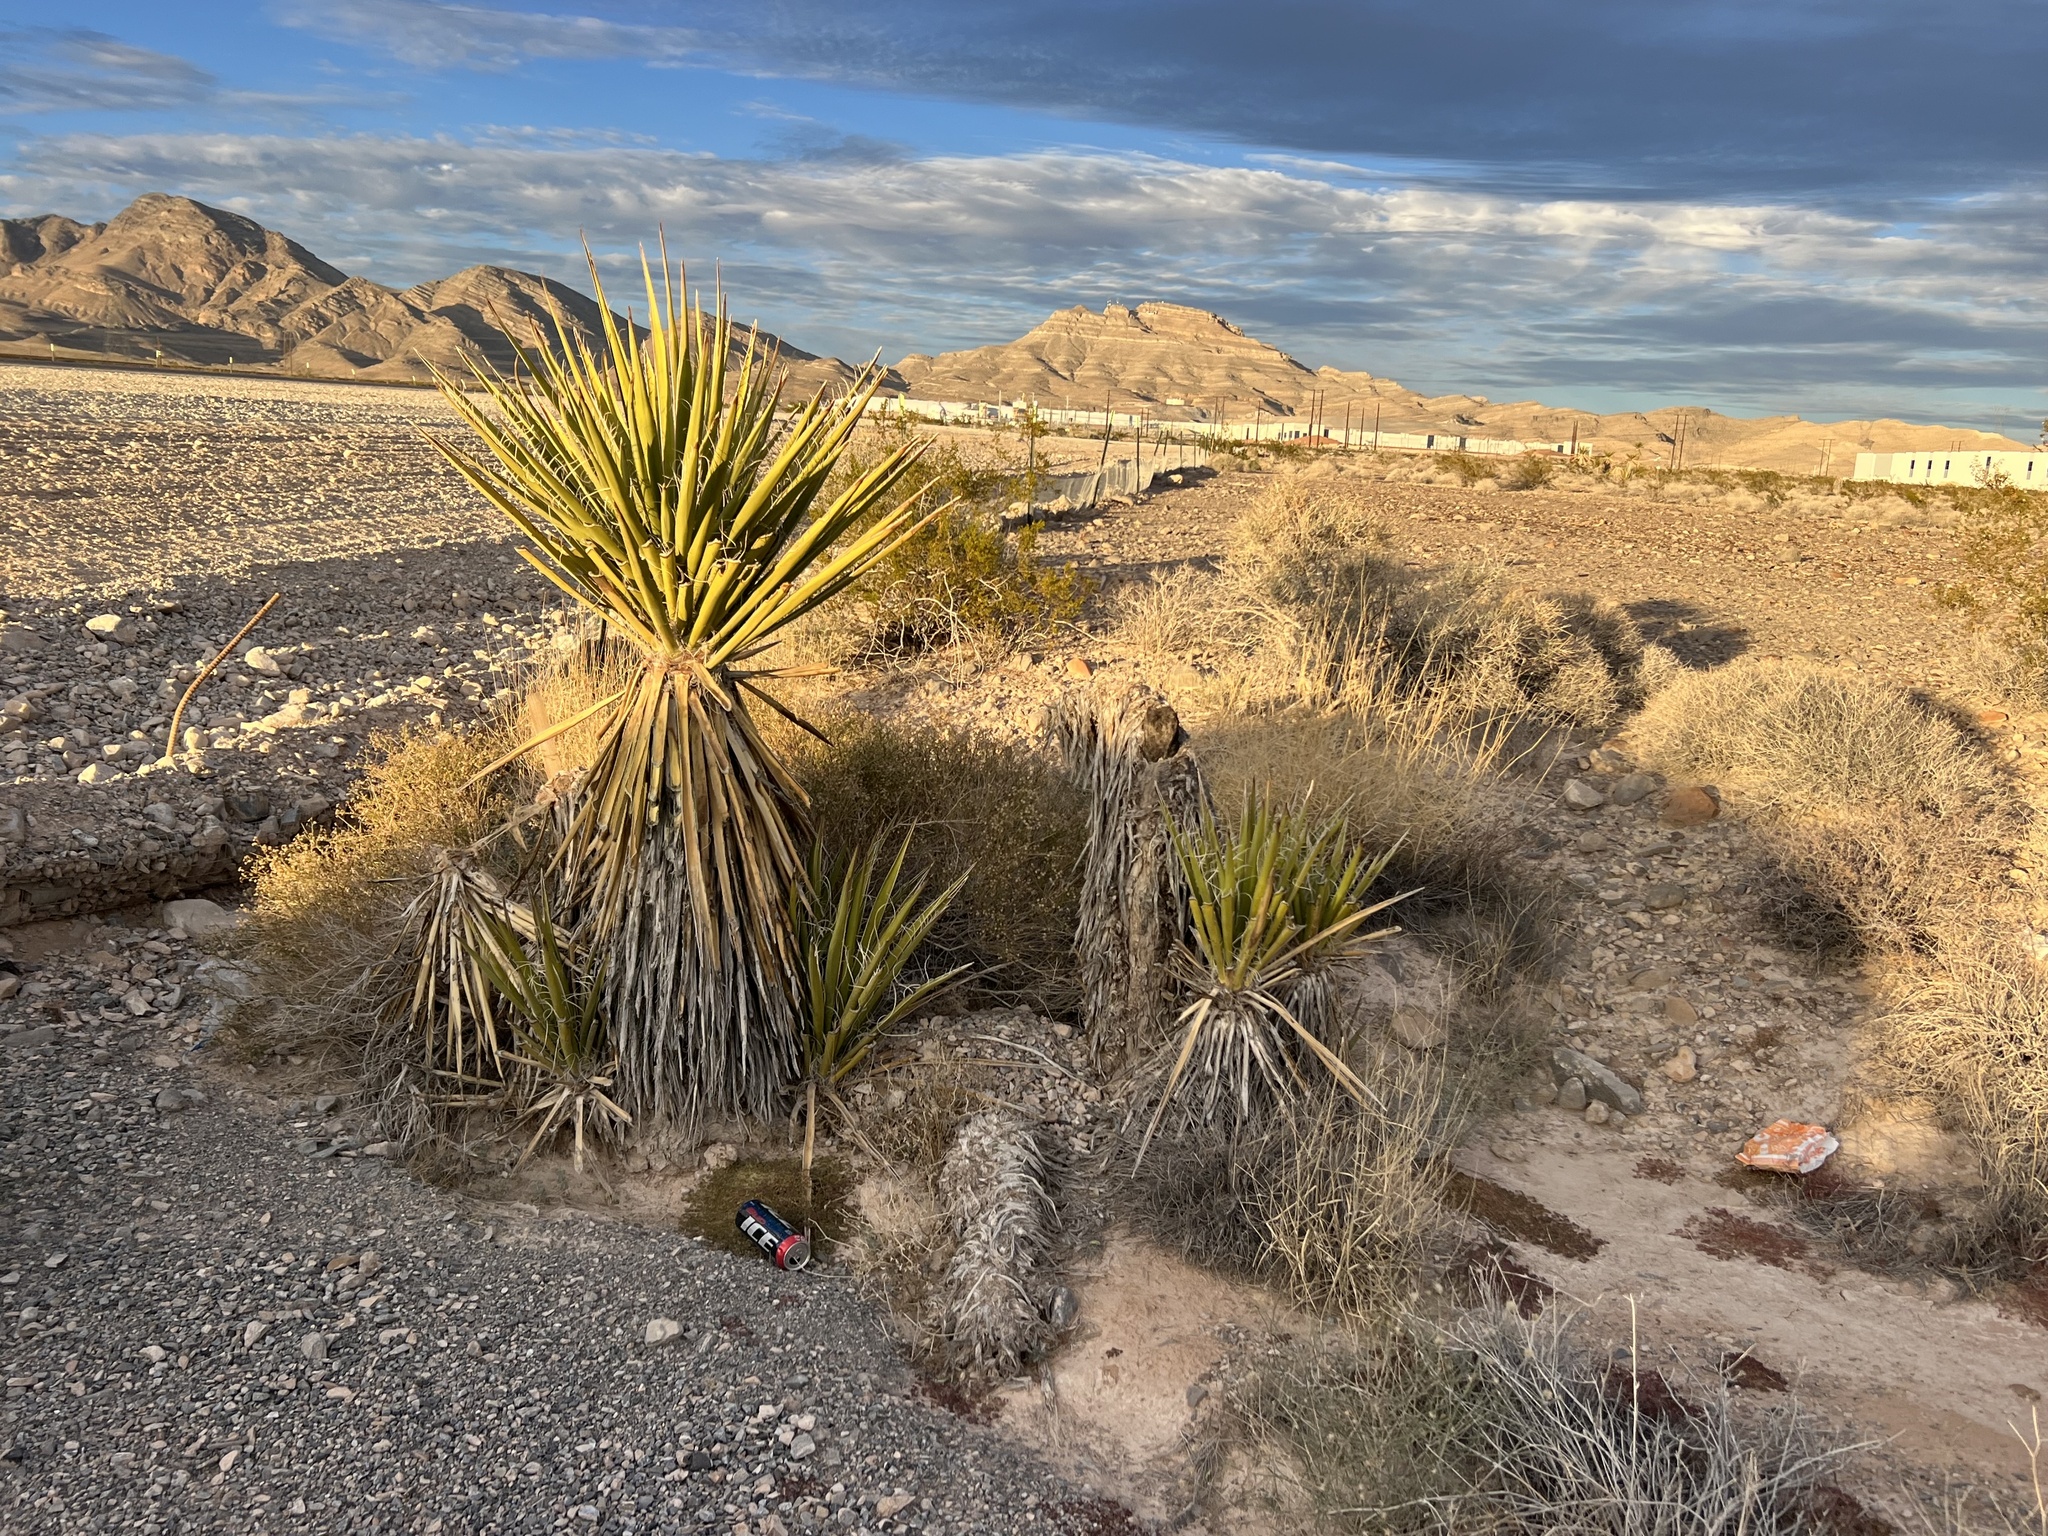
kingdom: Plantae
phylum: Tracheophyta
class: Liliopsida
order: Asparagales
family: Asparagaceae
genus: Yucca
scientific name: Yucca schidigera
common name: Mojave yucca
